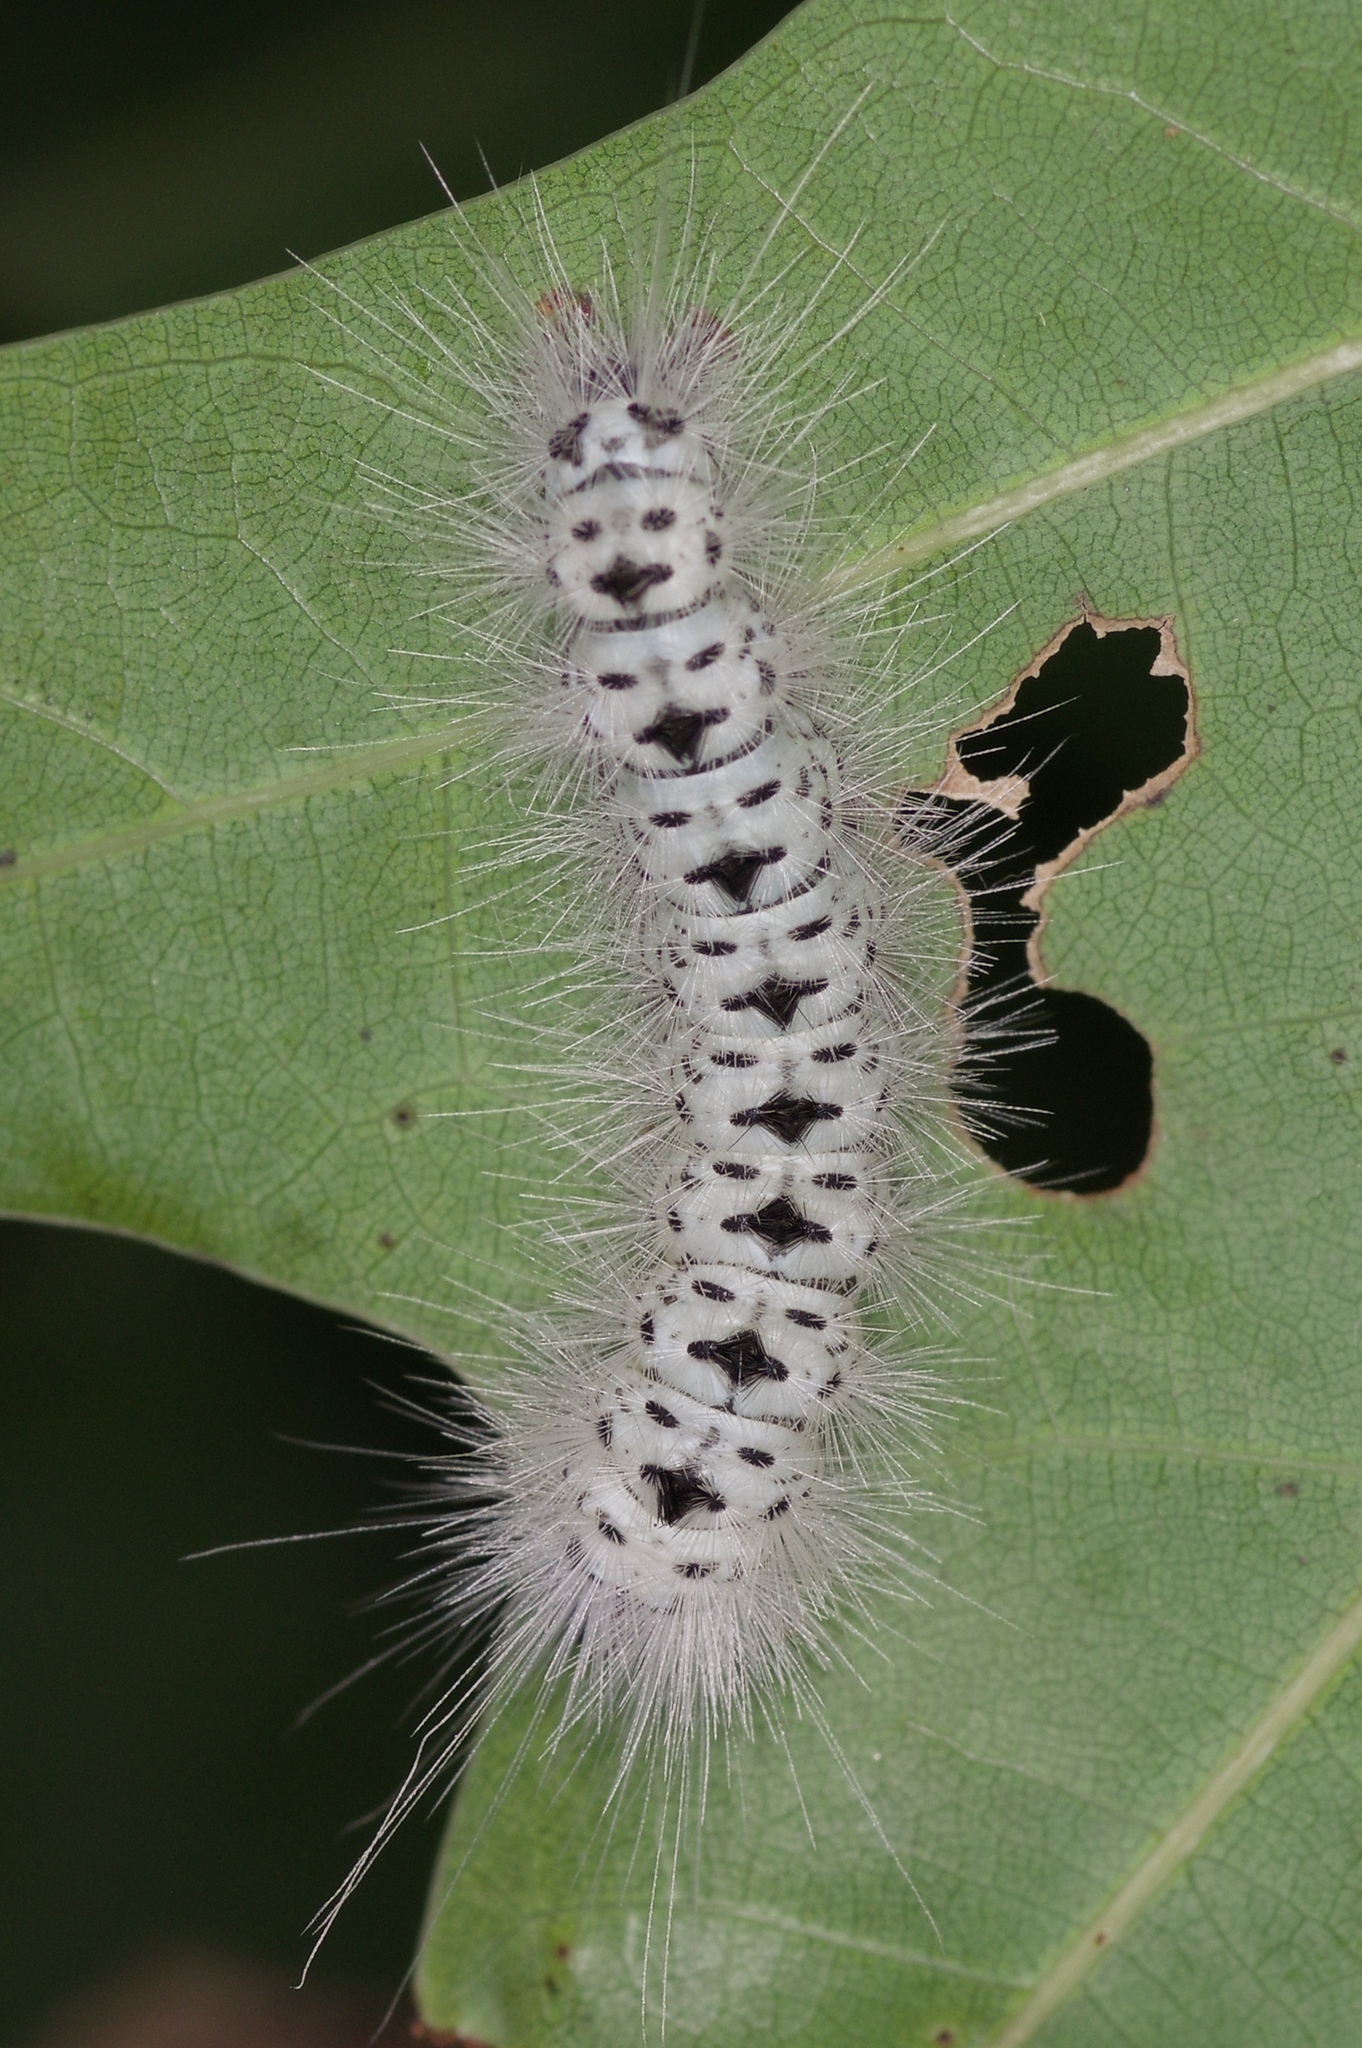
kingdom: Animalia
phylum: Arthropoda
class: Insecta
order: Lepidoptera
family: Erebidae
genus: Lophocampa
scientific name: Lophocampa caryae
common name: Hickory tussock moth
